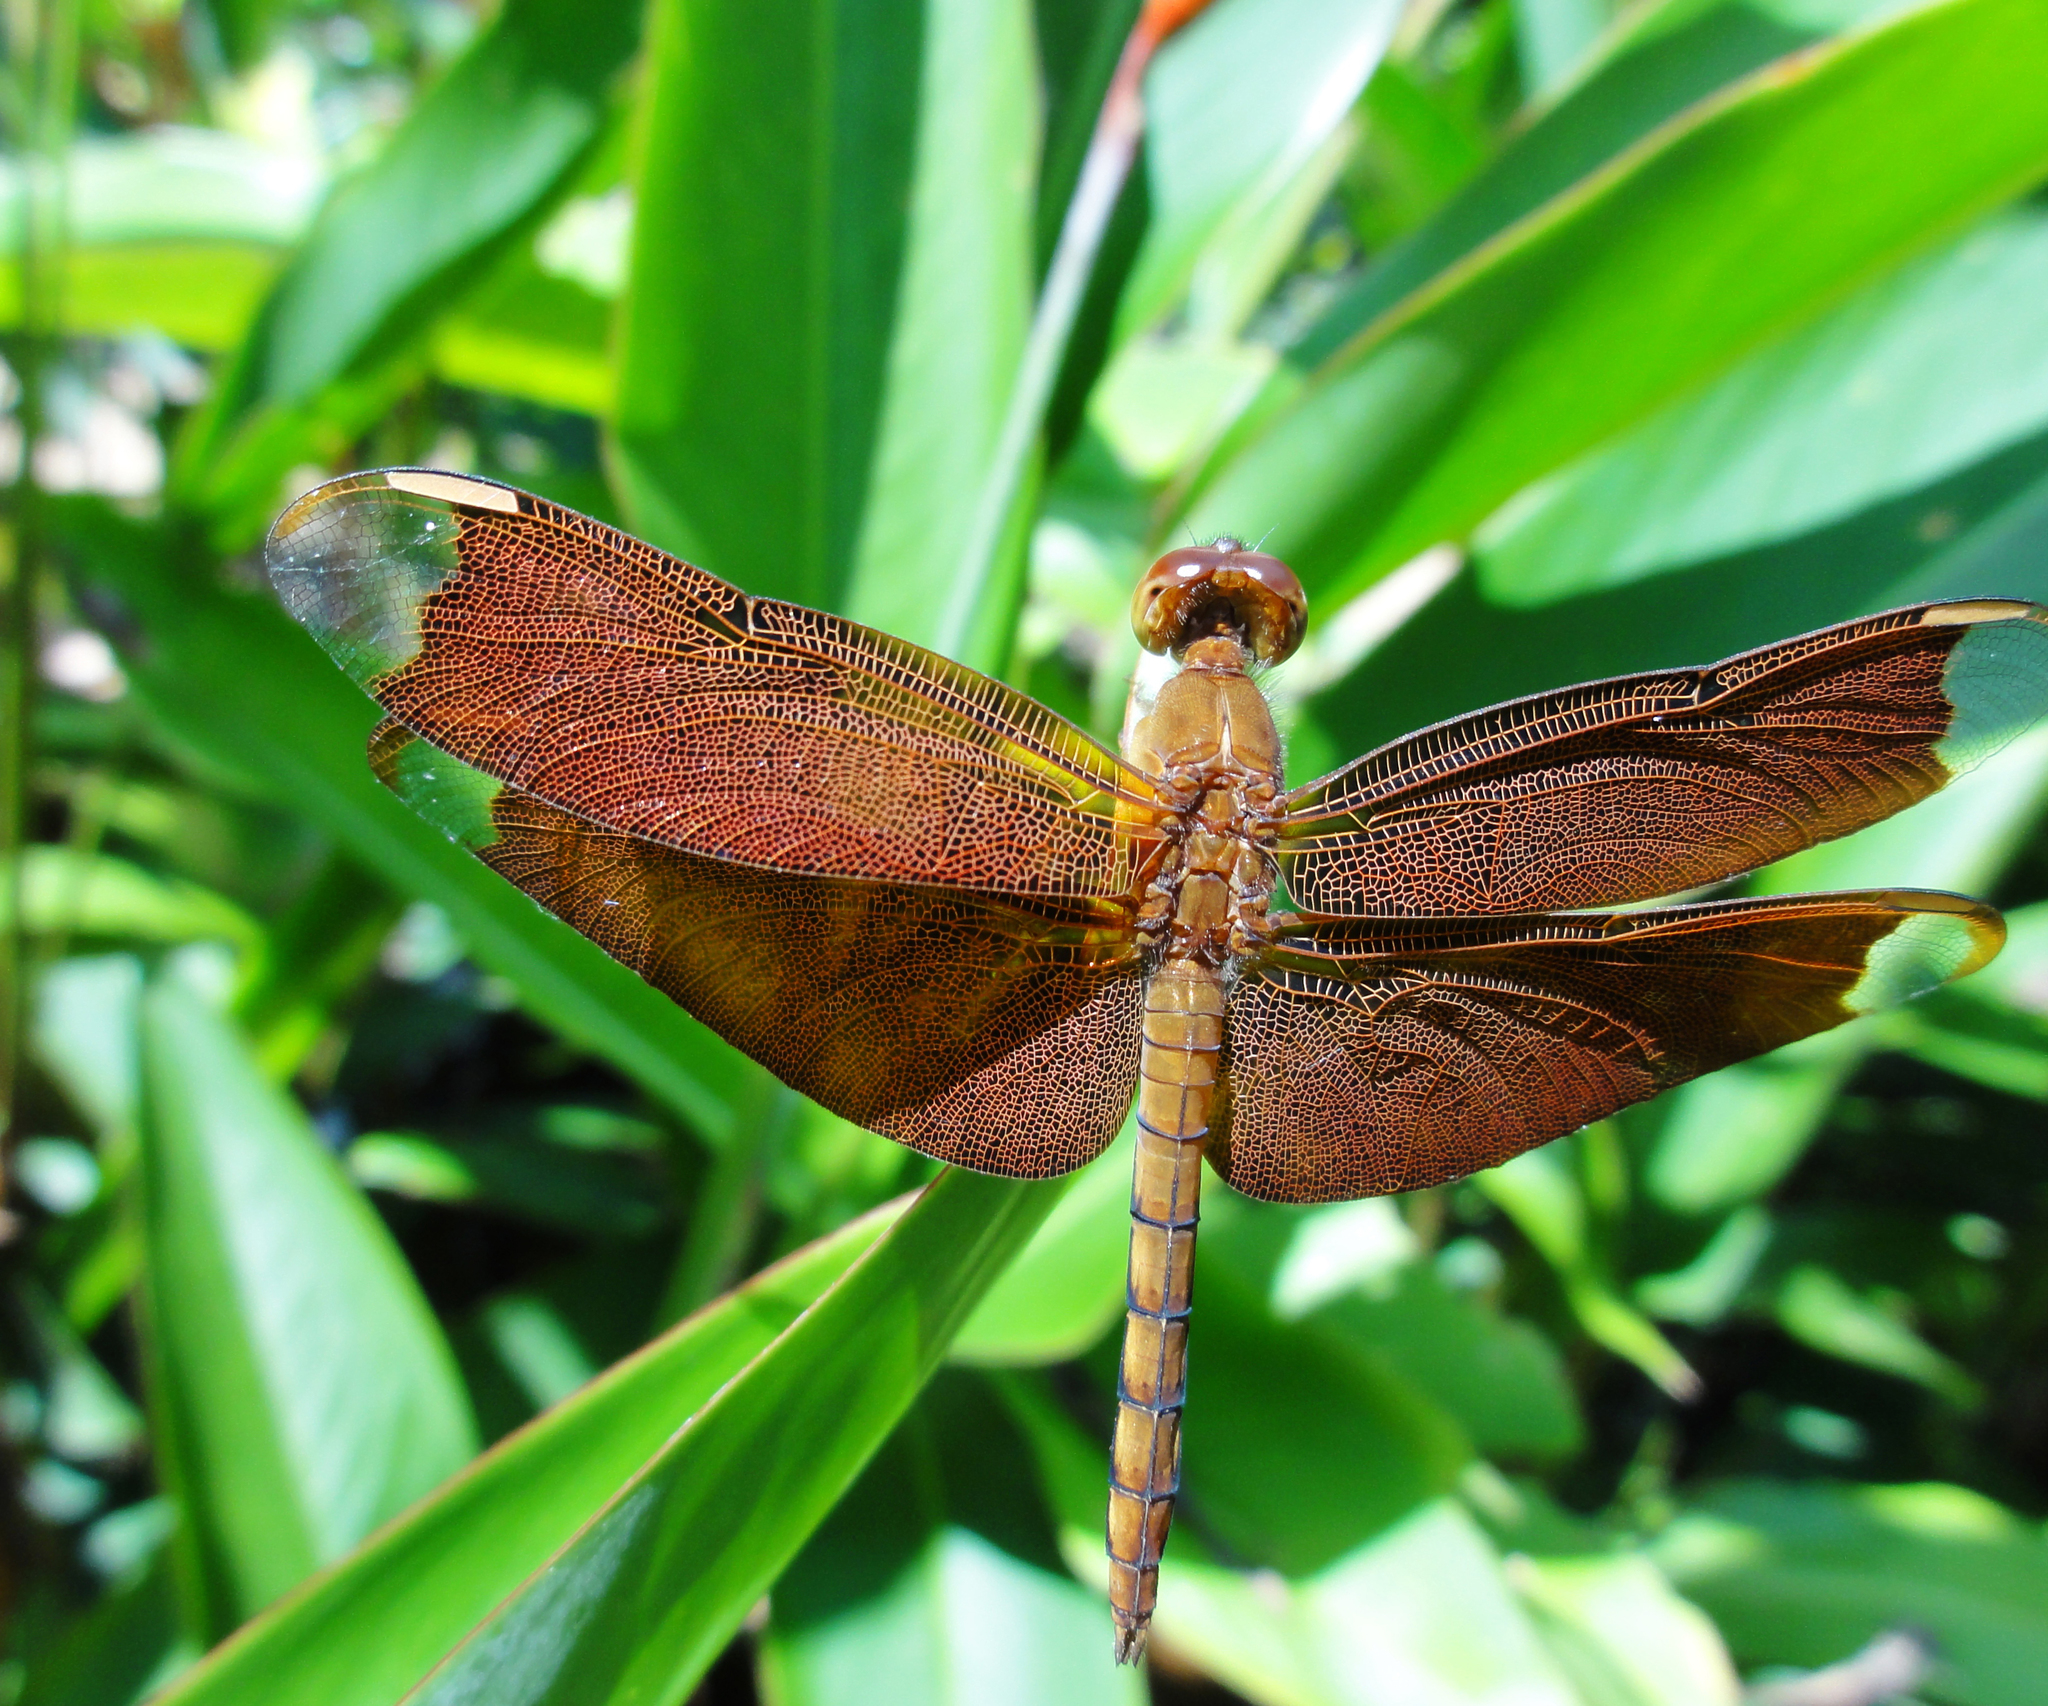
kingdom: Animalia
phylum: Arthropoda
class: Insecta
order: Odonata
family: Libellulidae
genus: Neurothemis
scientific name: Neurothemis fulvia
